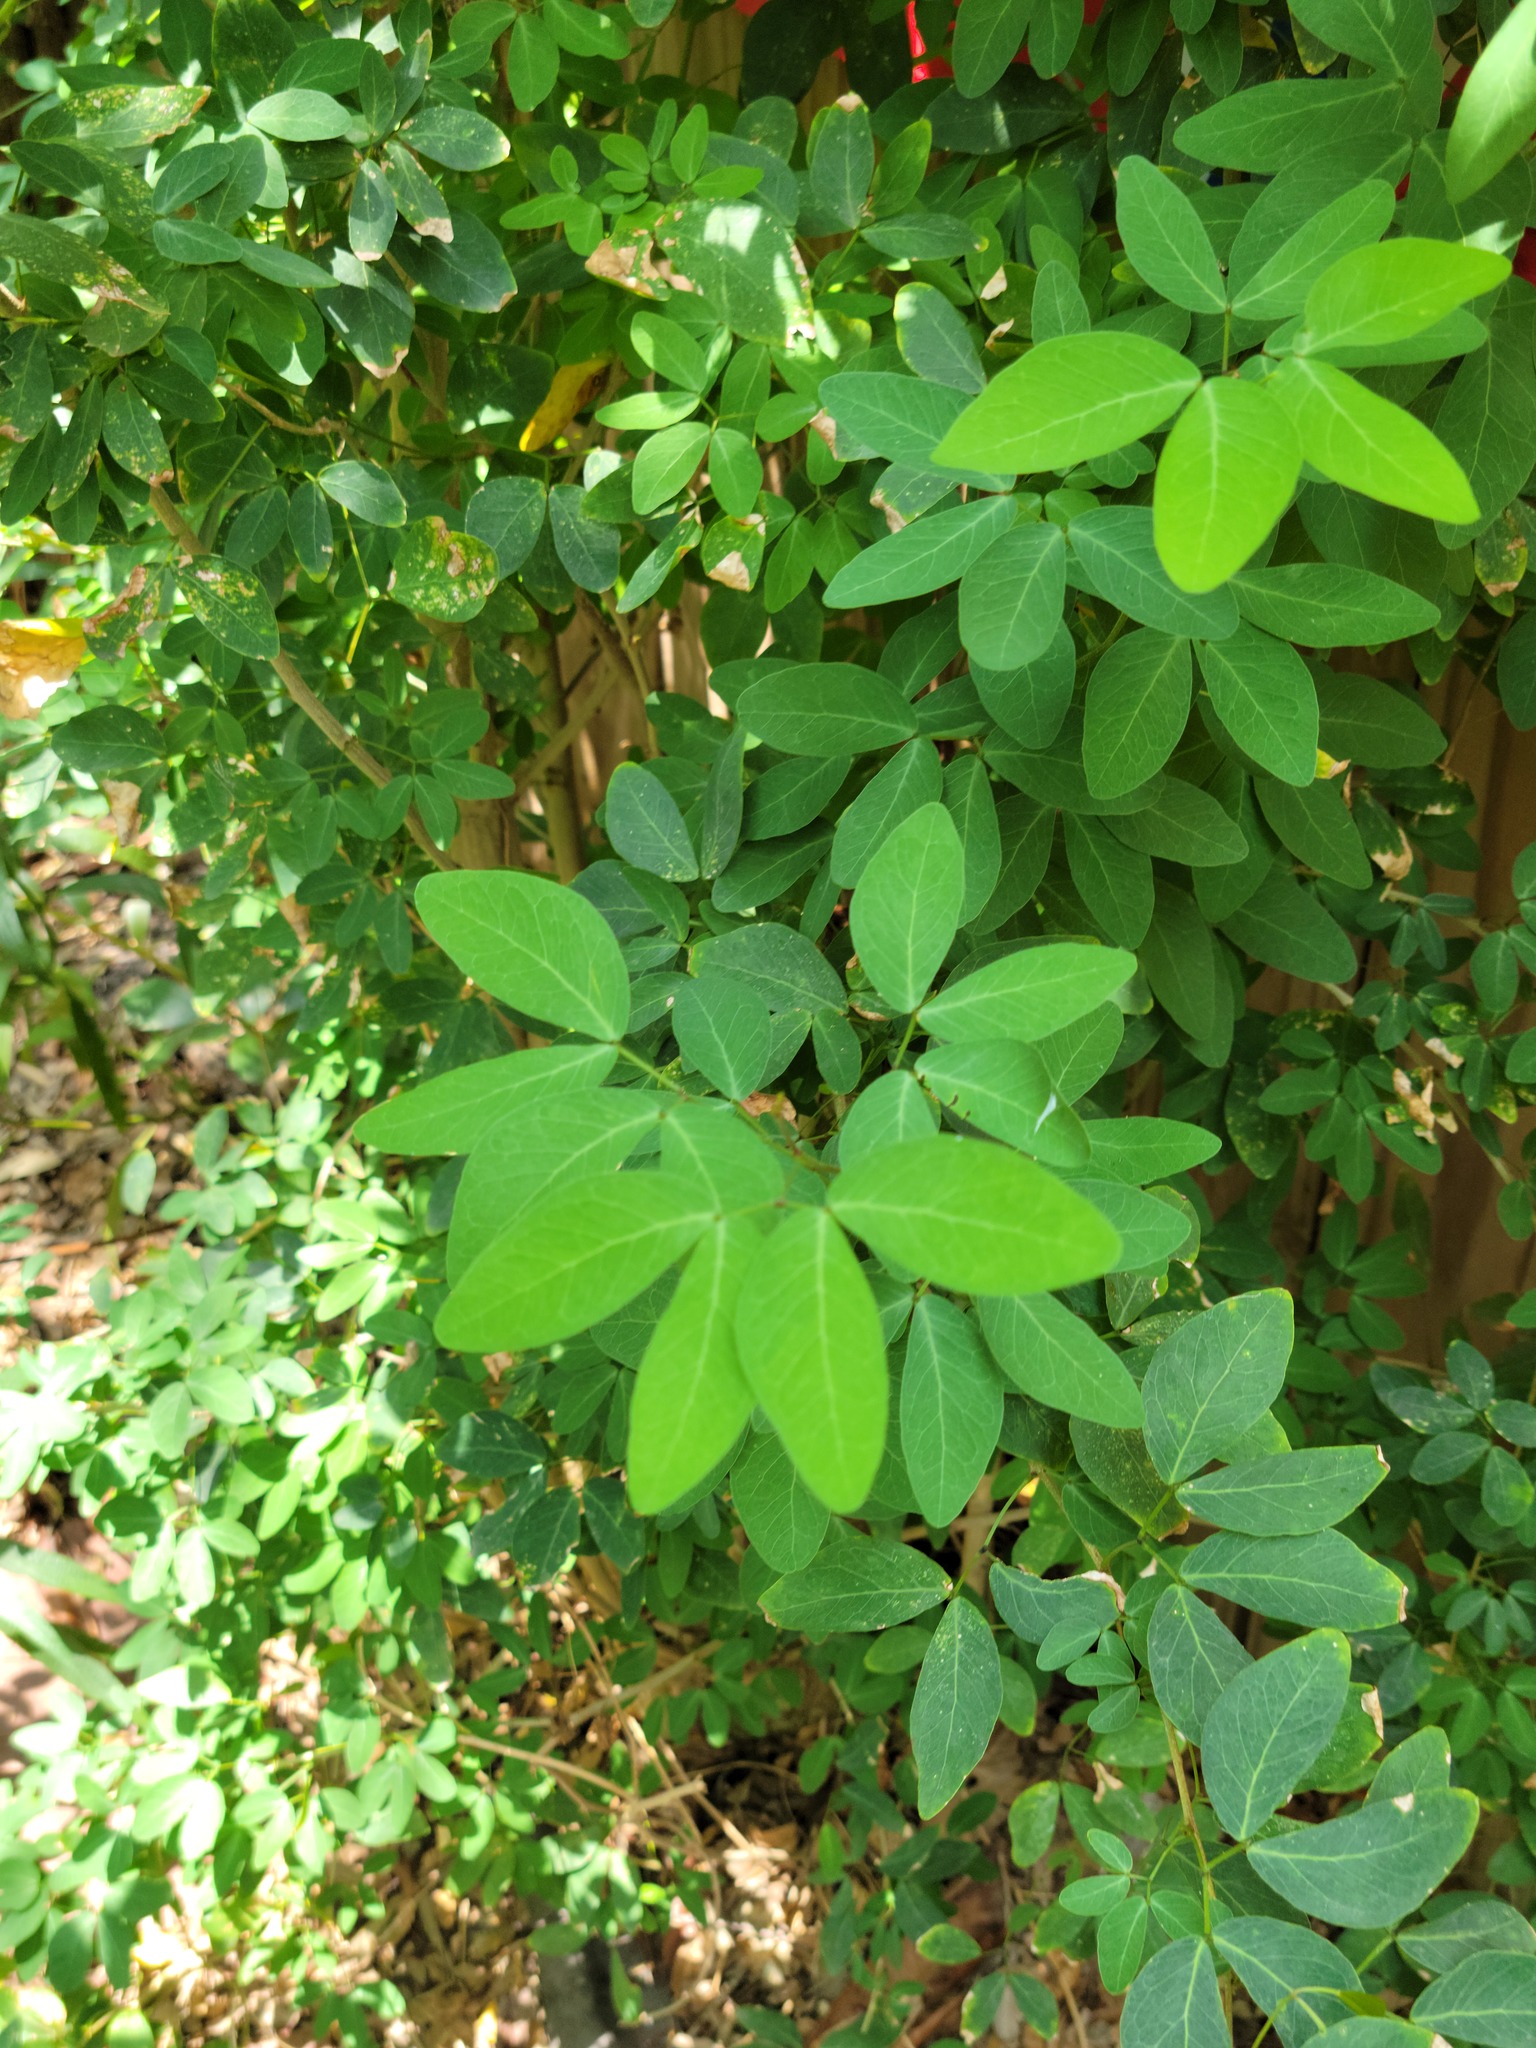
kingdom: Plantae
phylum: Tracheophyta
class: Magnoliopsida
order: Fabales
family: Fabaceae
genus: Pithecellobium
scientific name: Pithecellobium dulce
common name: Monkeypod
